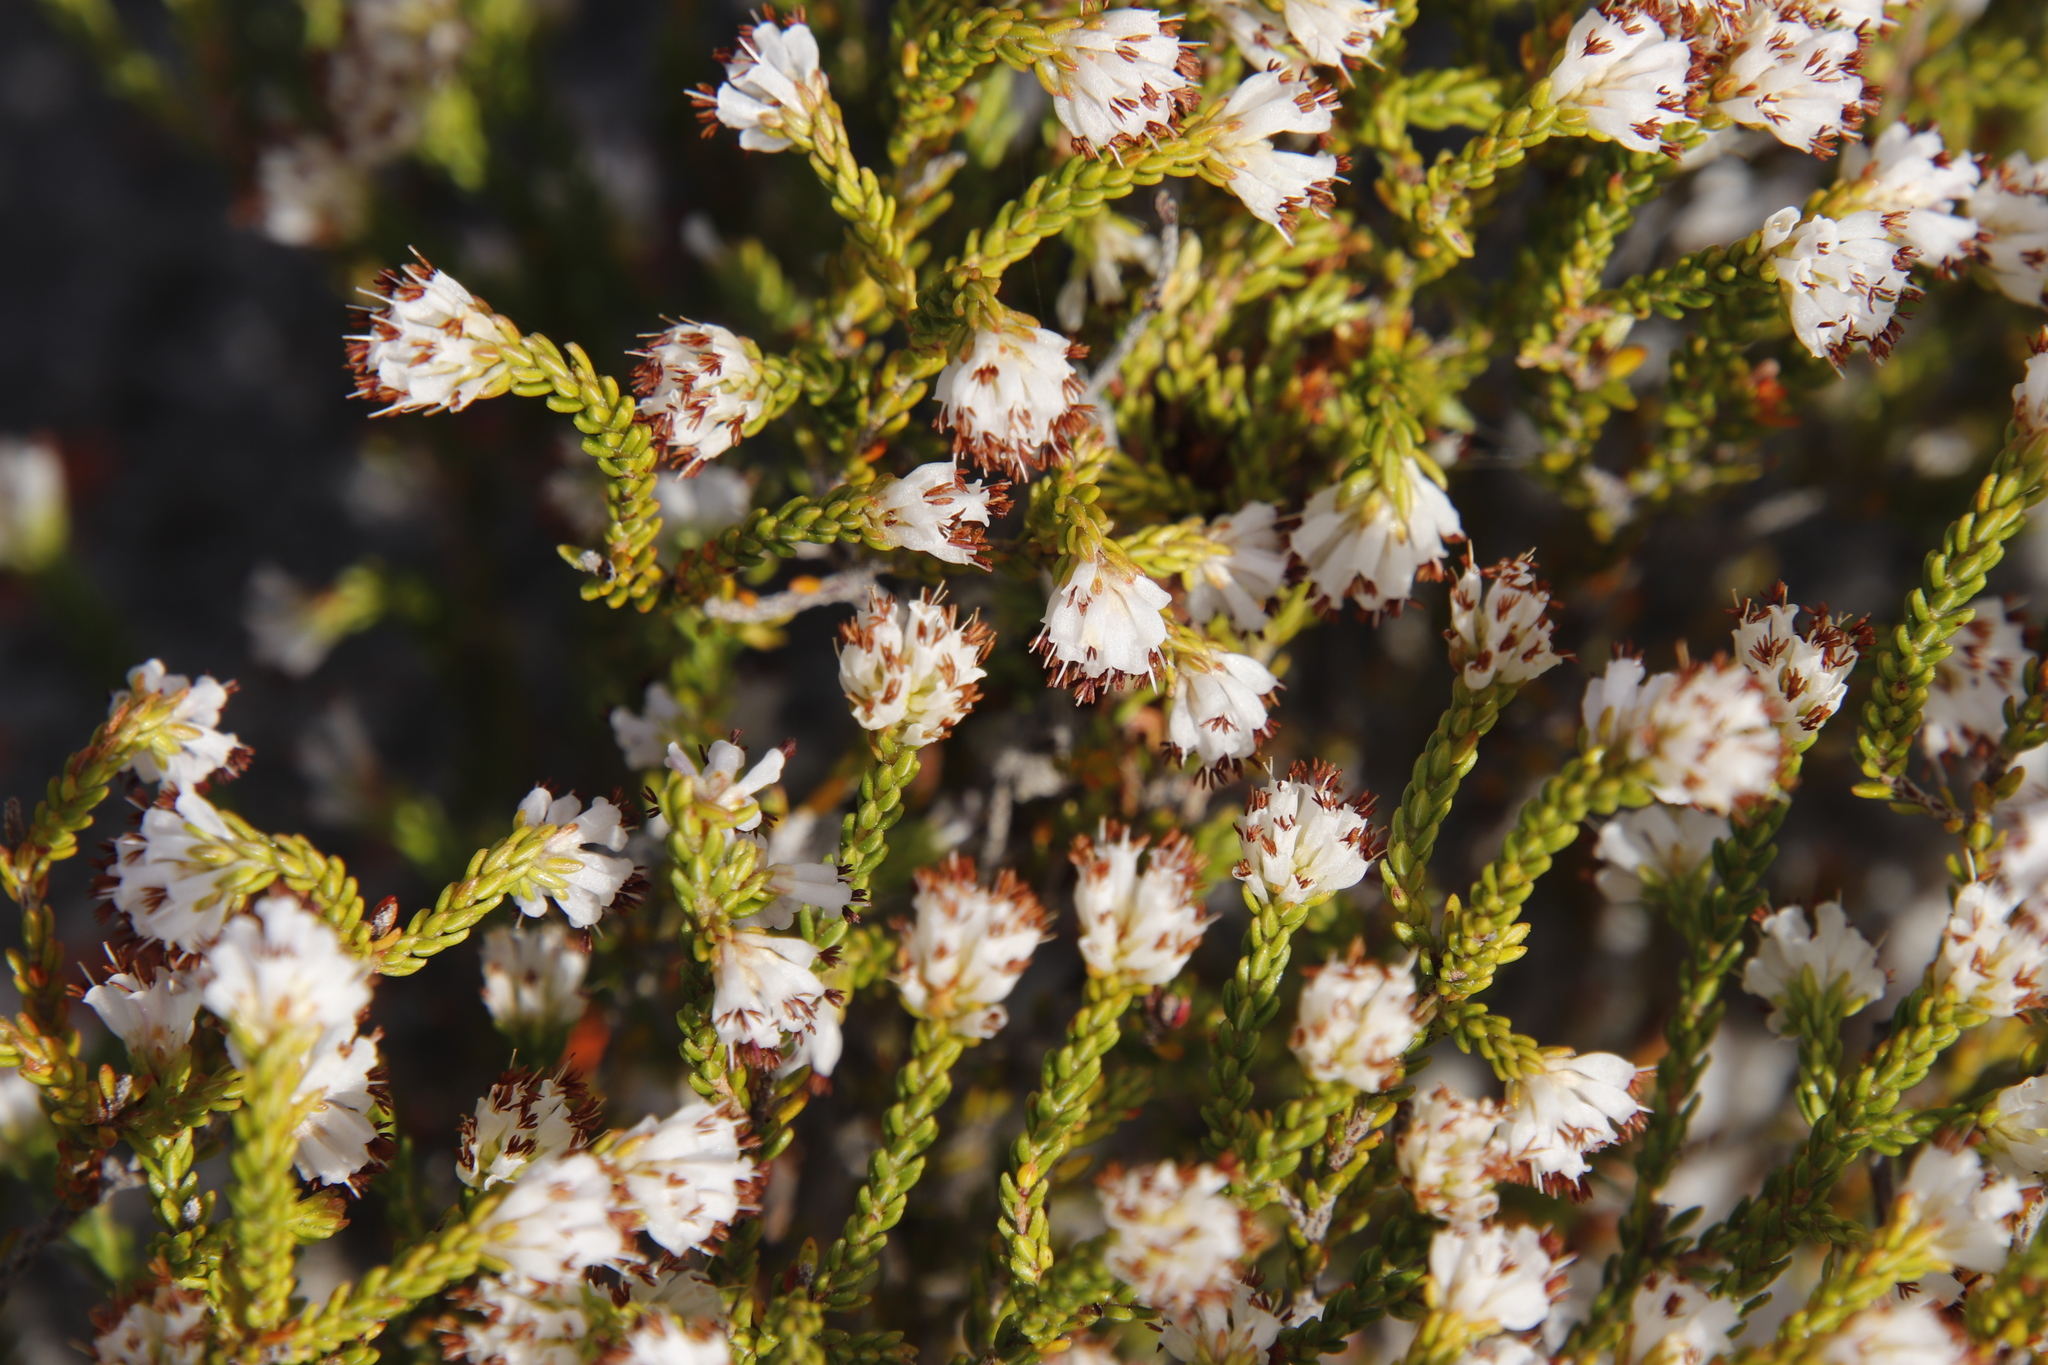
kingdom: Plantae
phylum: Tracheophyta
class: Magnoliopsida
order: Ericales
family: Ericaceae
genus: Erica
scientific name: Erica labialis
